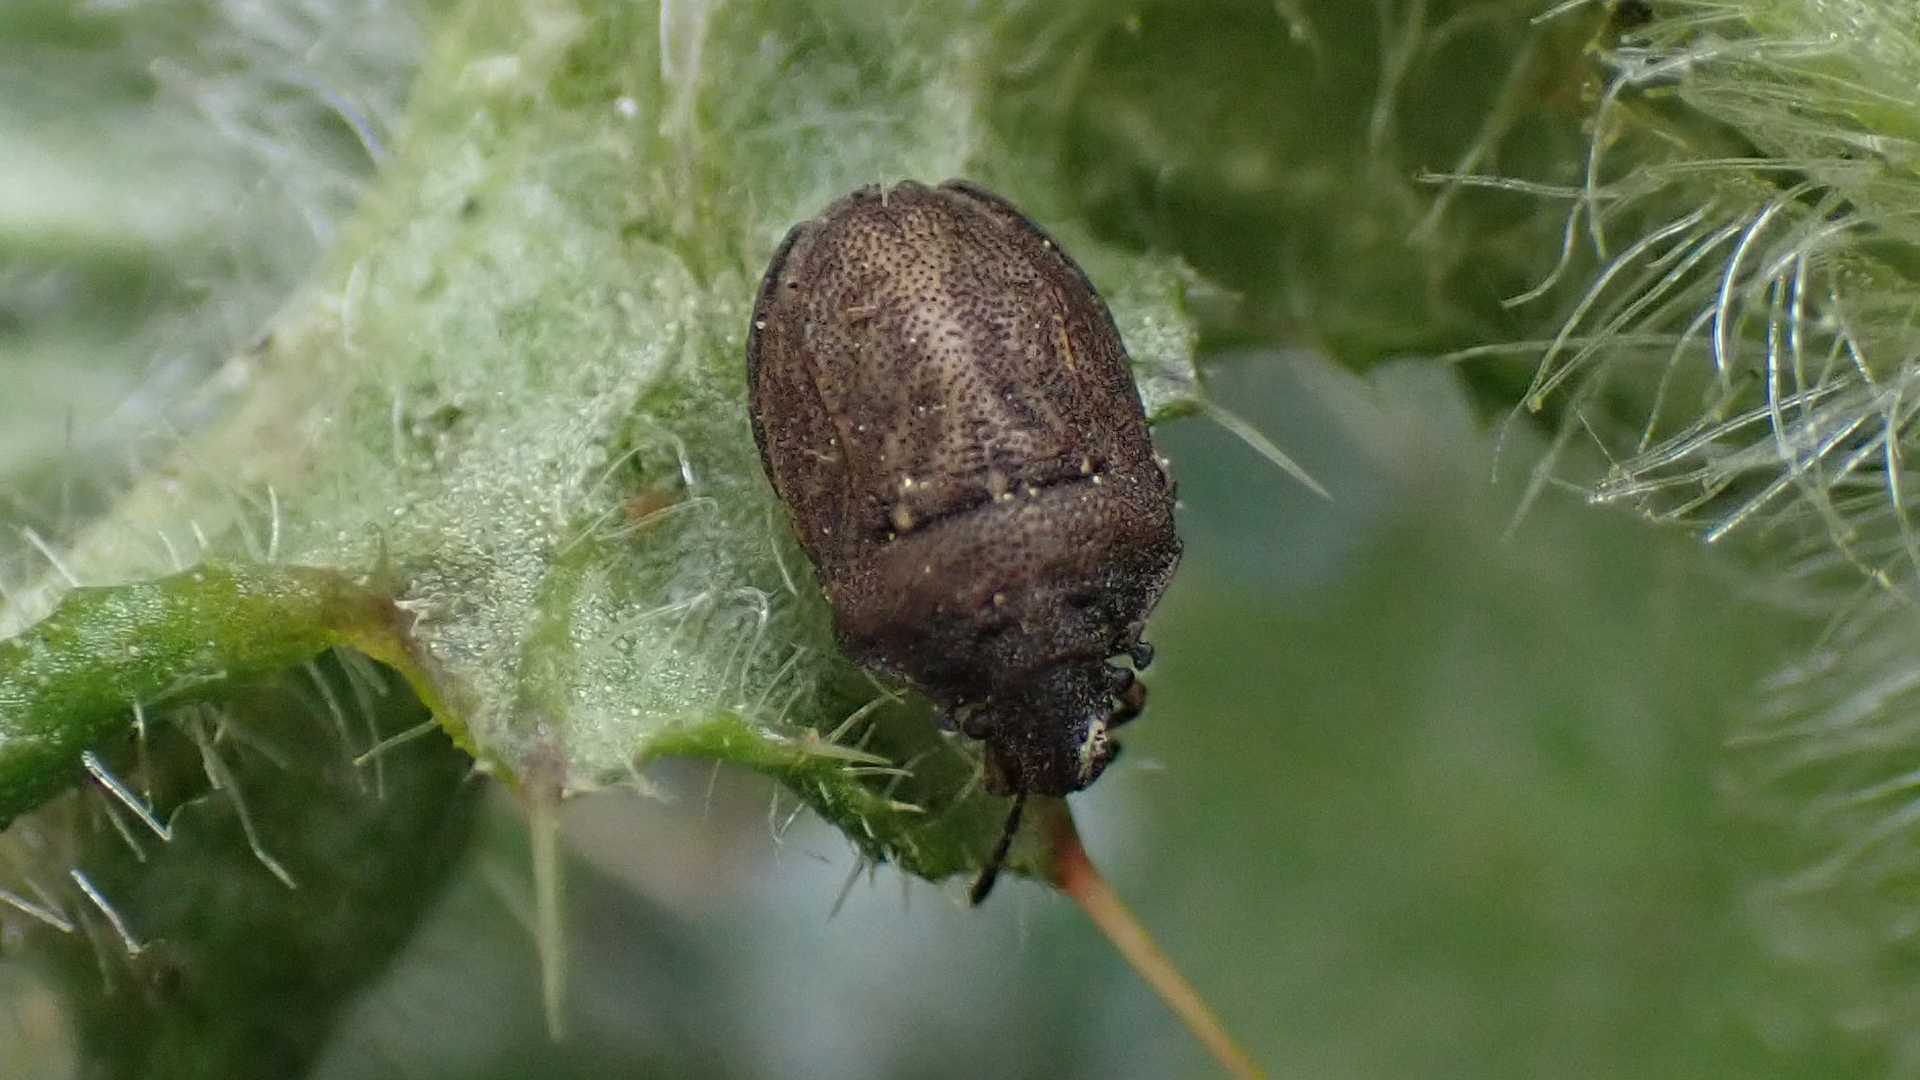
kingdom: Animalia
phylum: Arthropoda
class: Insecta
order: Hemiptera
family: Pentatomidae
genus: Podops
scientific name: Podops inunctus
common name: Turtle bug
